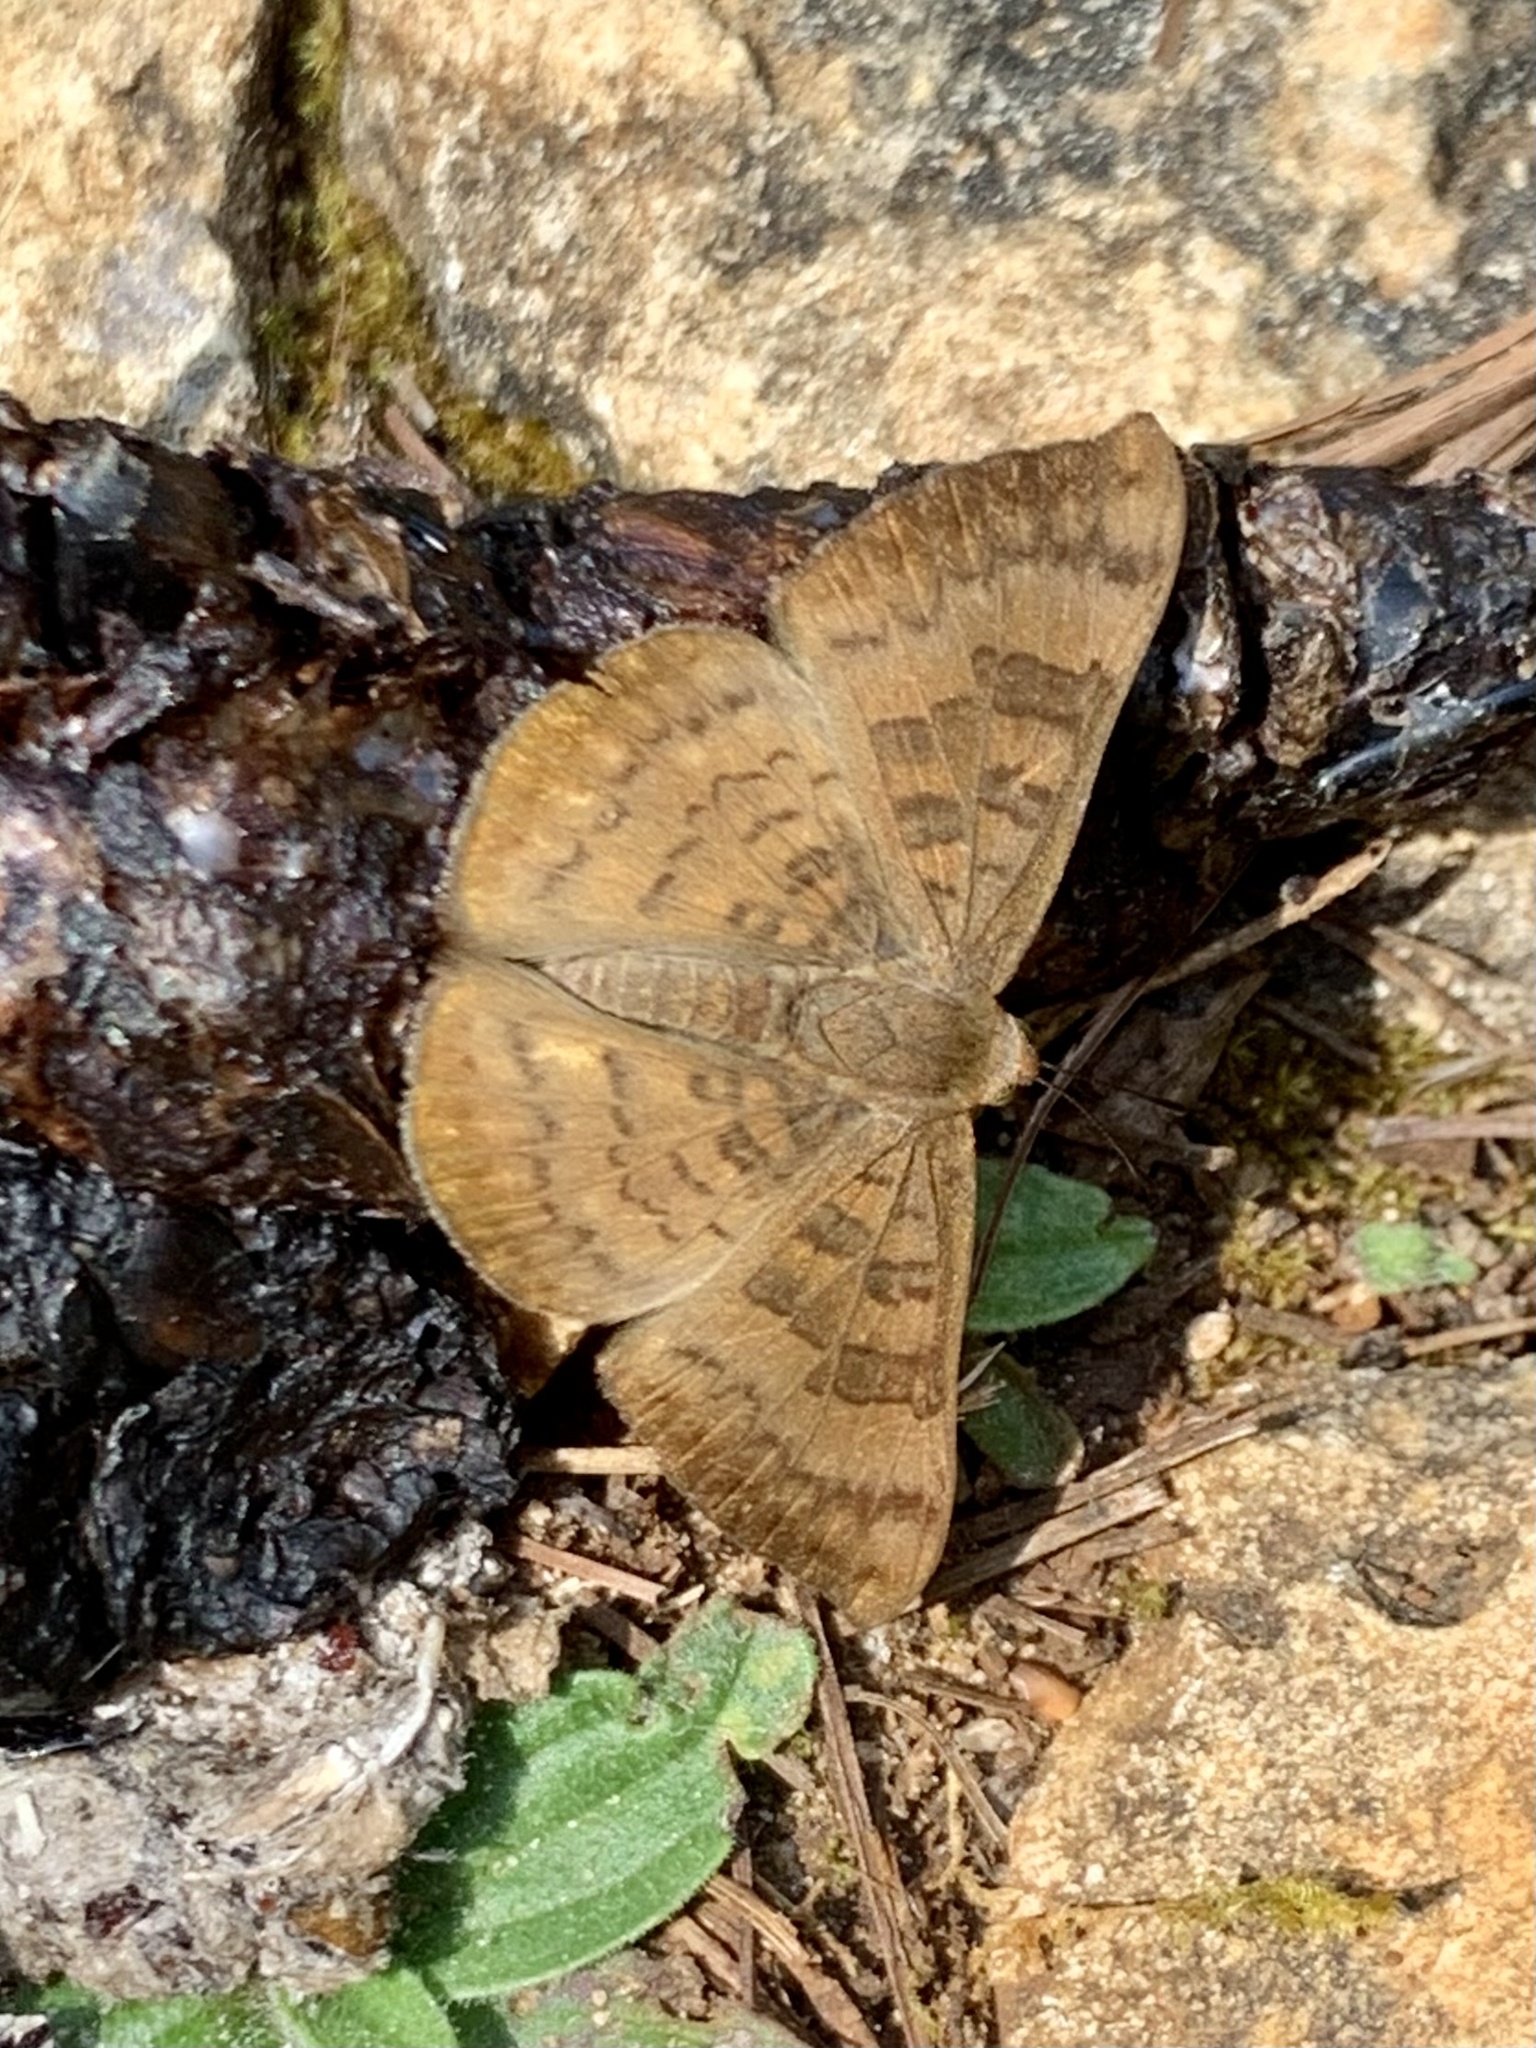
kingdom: Animalia
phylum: Arthropoda
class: Insecta
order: Lepidoptera
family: Lycaenidae
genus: Emesis
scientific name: Emesis tenedia
